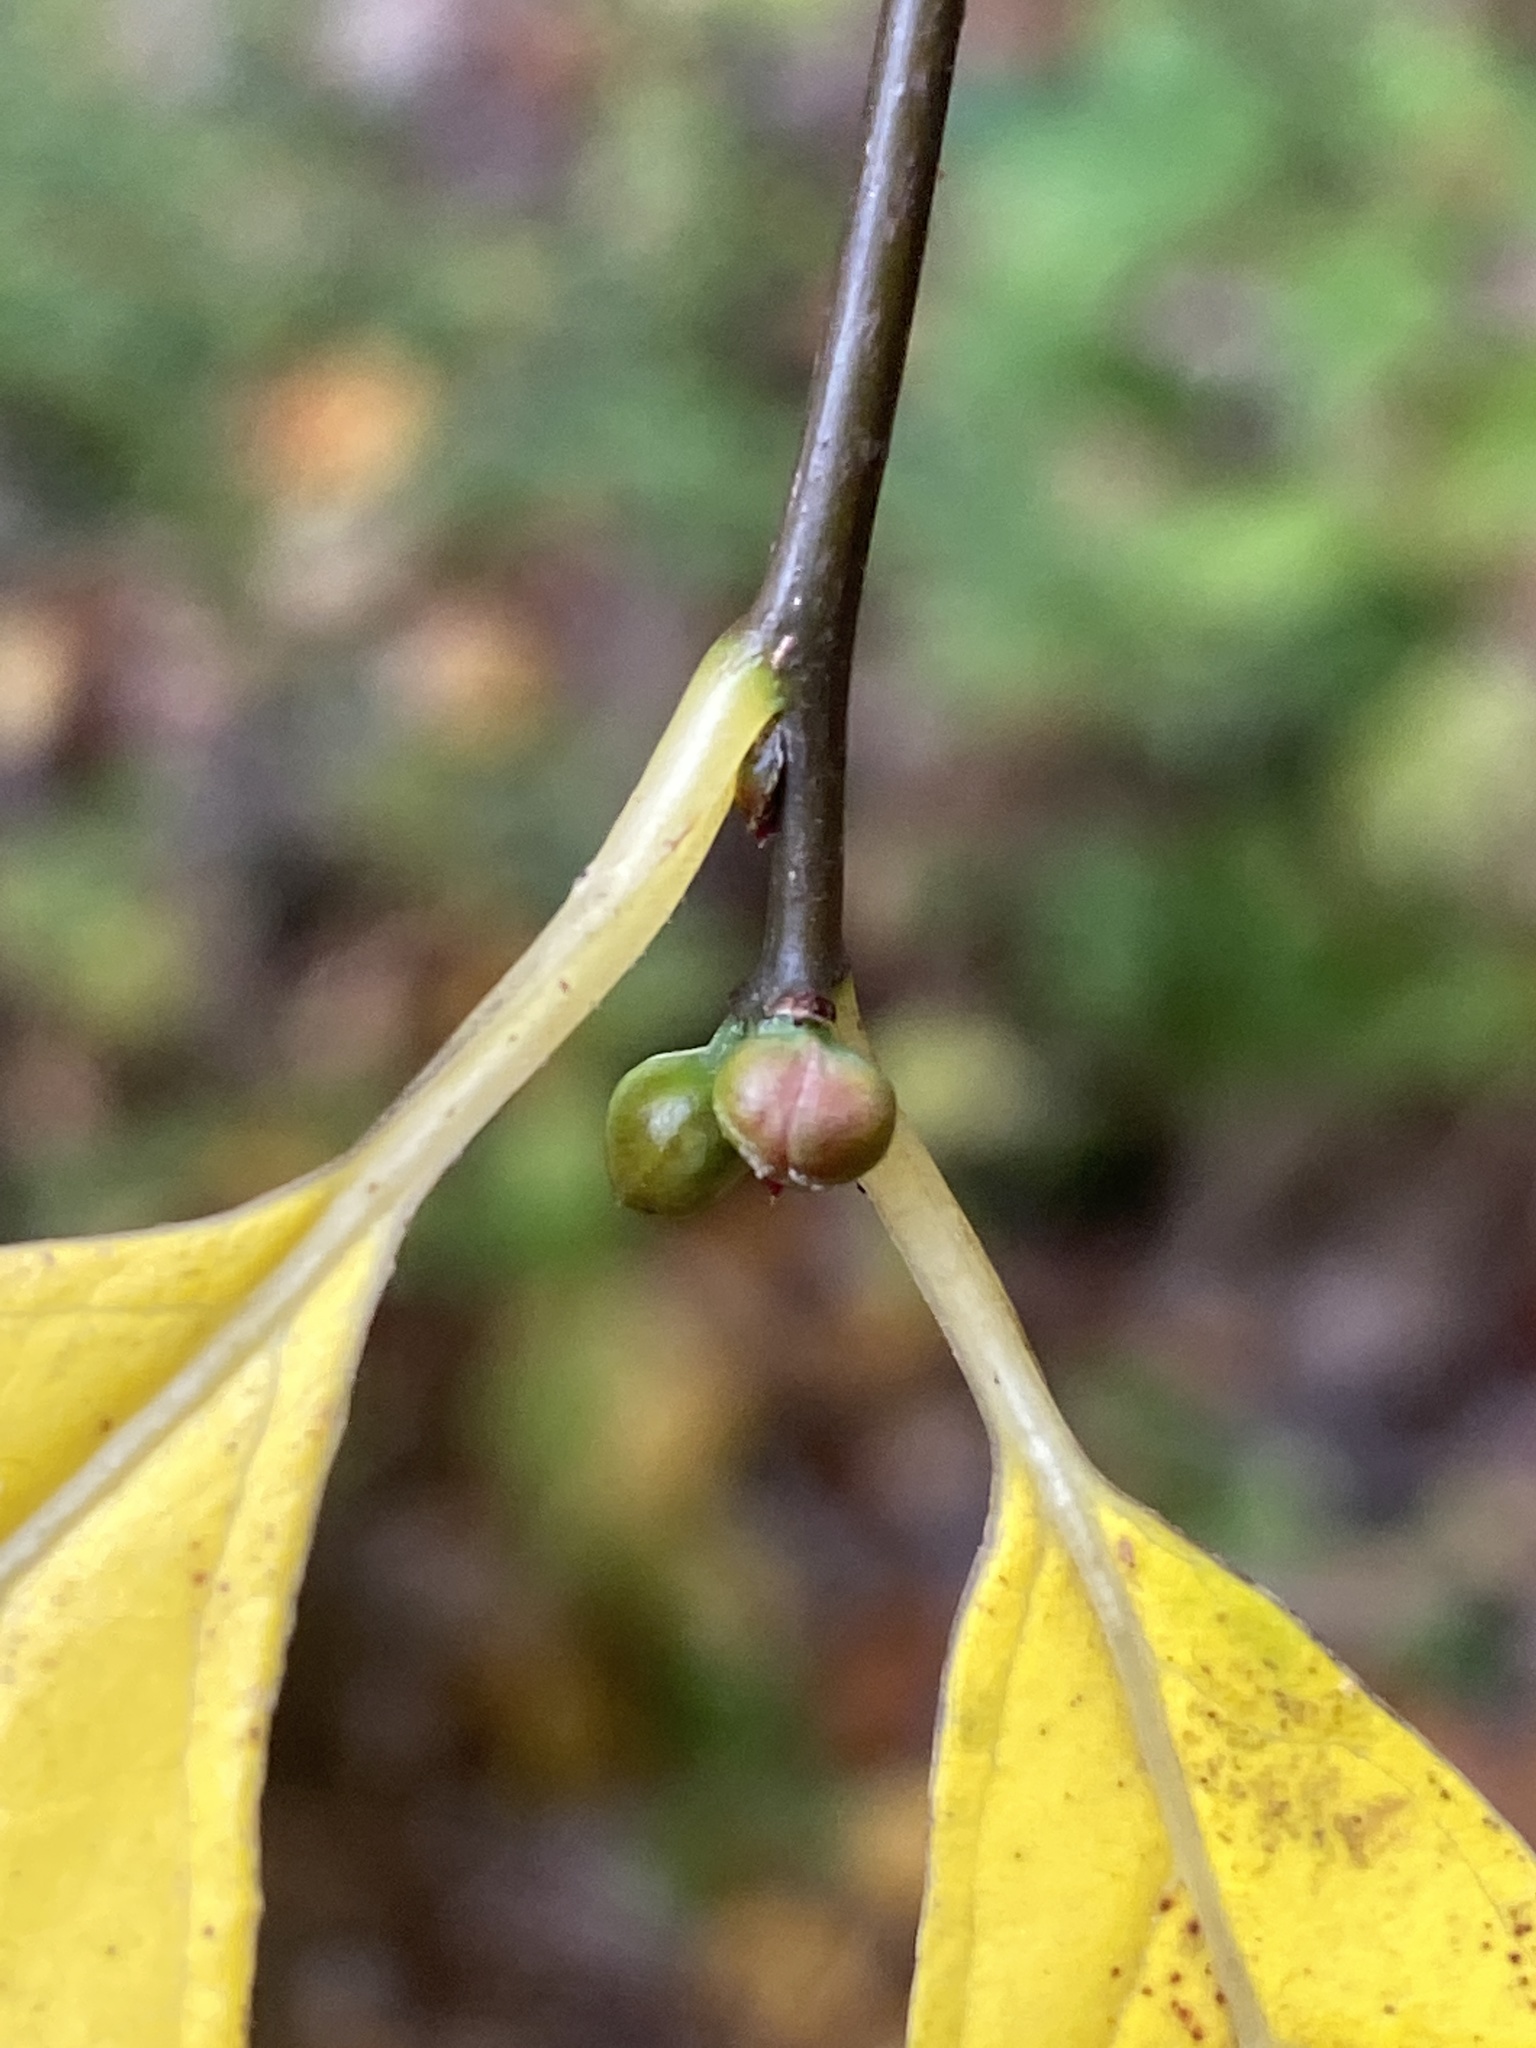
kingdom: Plantae
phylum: Tracheophyta
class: Magnoliopsida
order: Laurales
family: Lauraceae
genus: Lindera
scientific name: Lindera benzoin
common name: Spicebush
